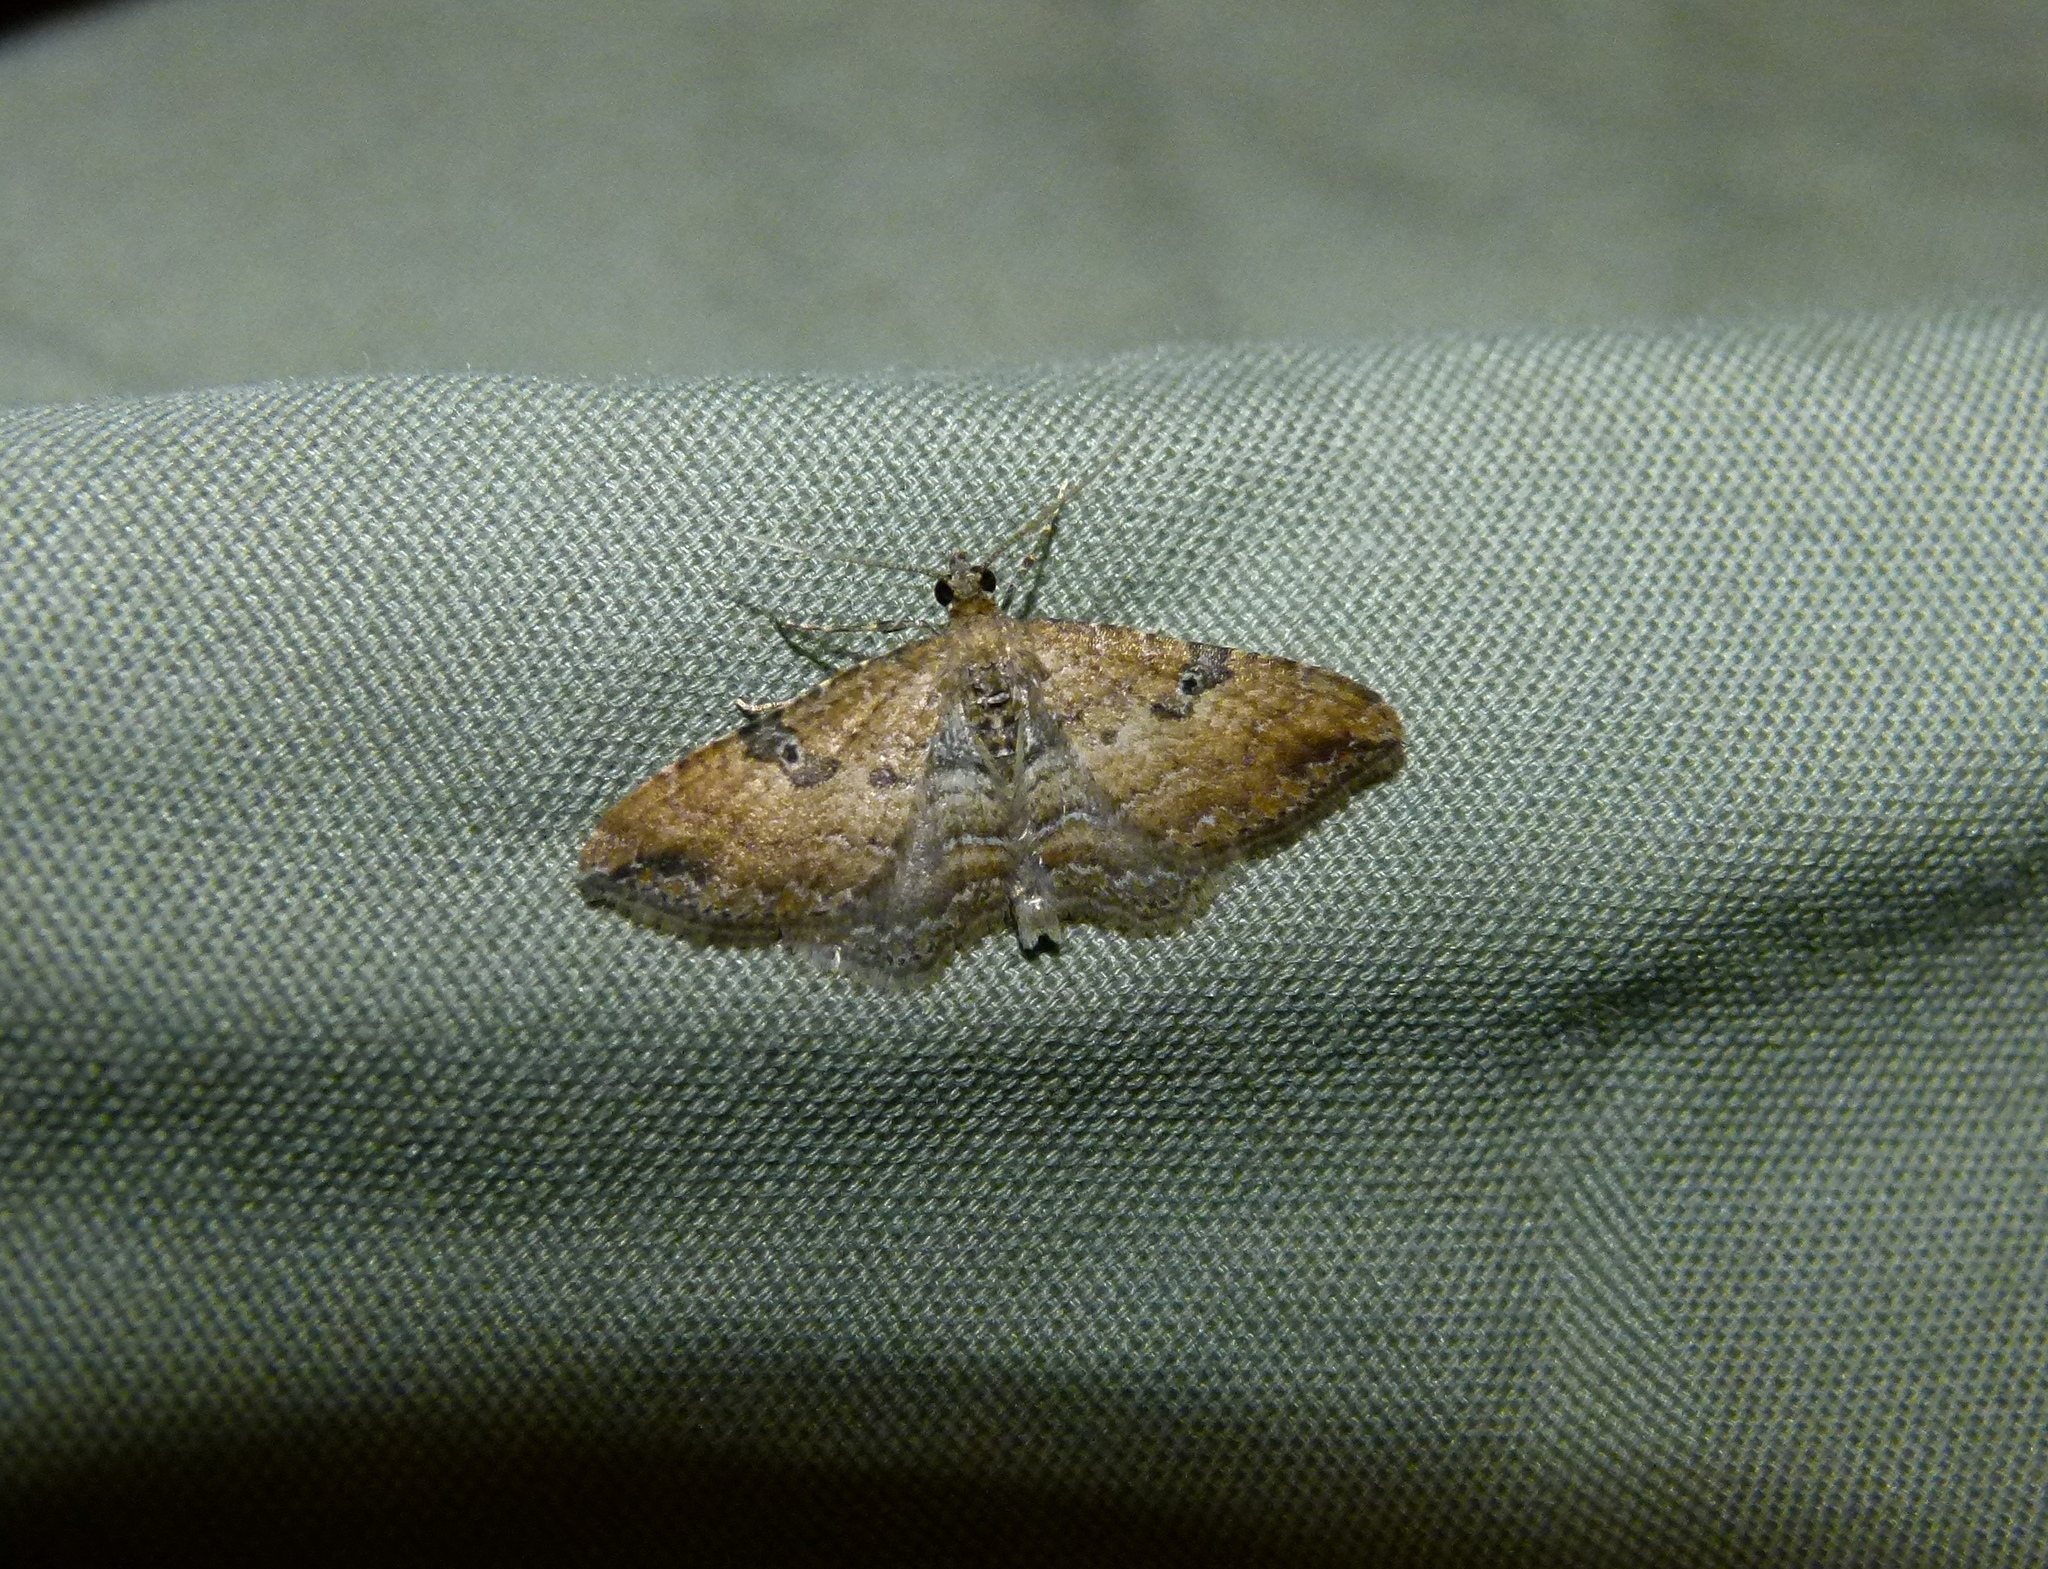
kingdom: Animalia
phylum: Arthropoda
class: Insecta
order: Lepidoptera
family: Geometridae
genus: Orthonama
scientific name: Orthonama obstipata
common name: The gem
